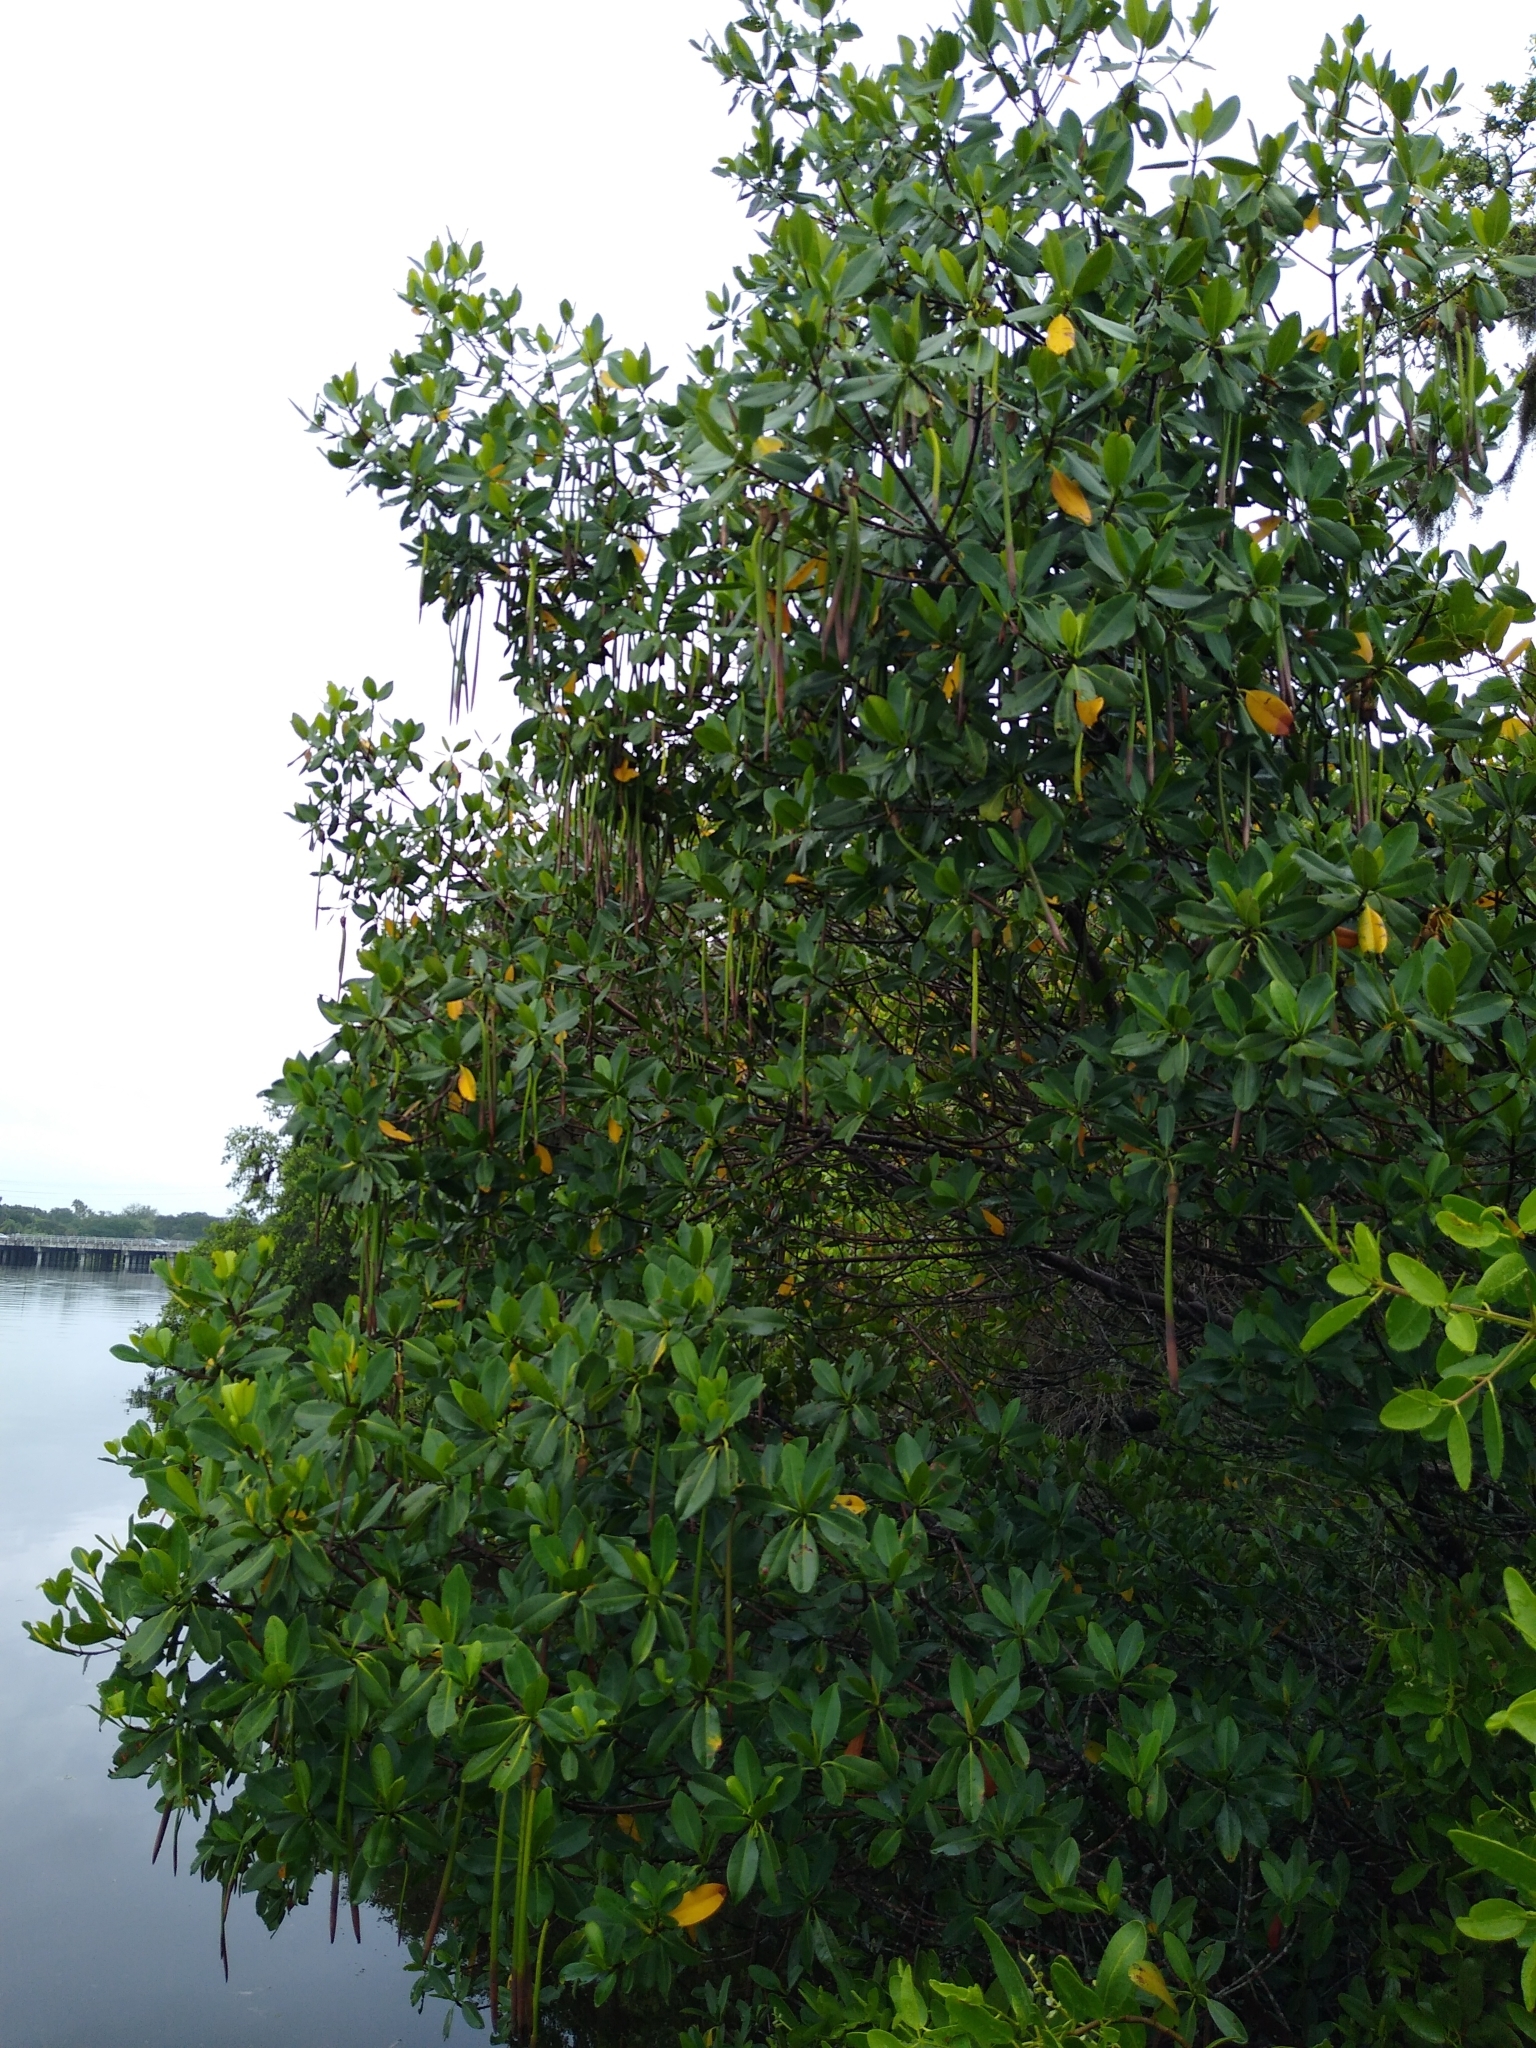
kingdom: Plantae
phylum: Tracheophyta
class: Magnoliopsida
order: Malpighiales
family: Rhizophoraceae
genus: Rhizophora
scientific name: Rhizophora mangle
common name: Red mangrove
